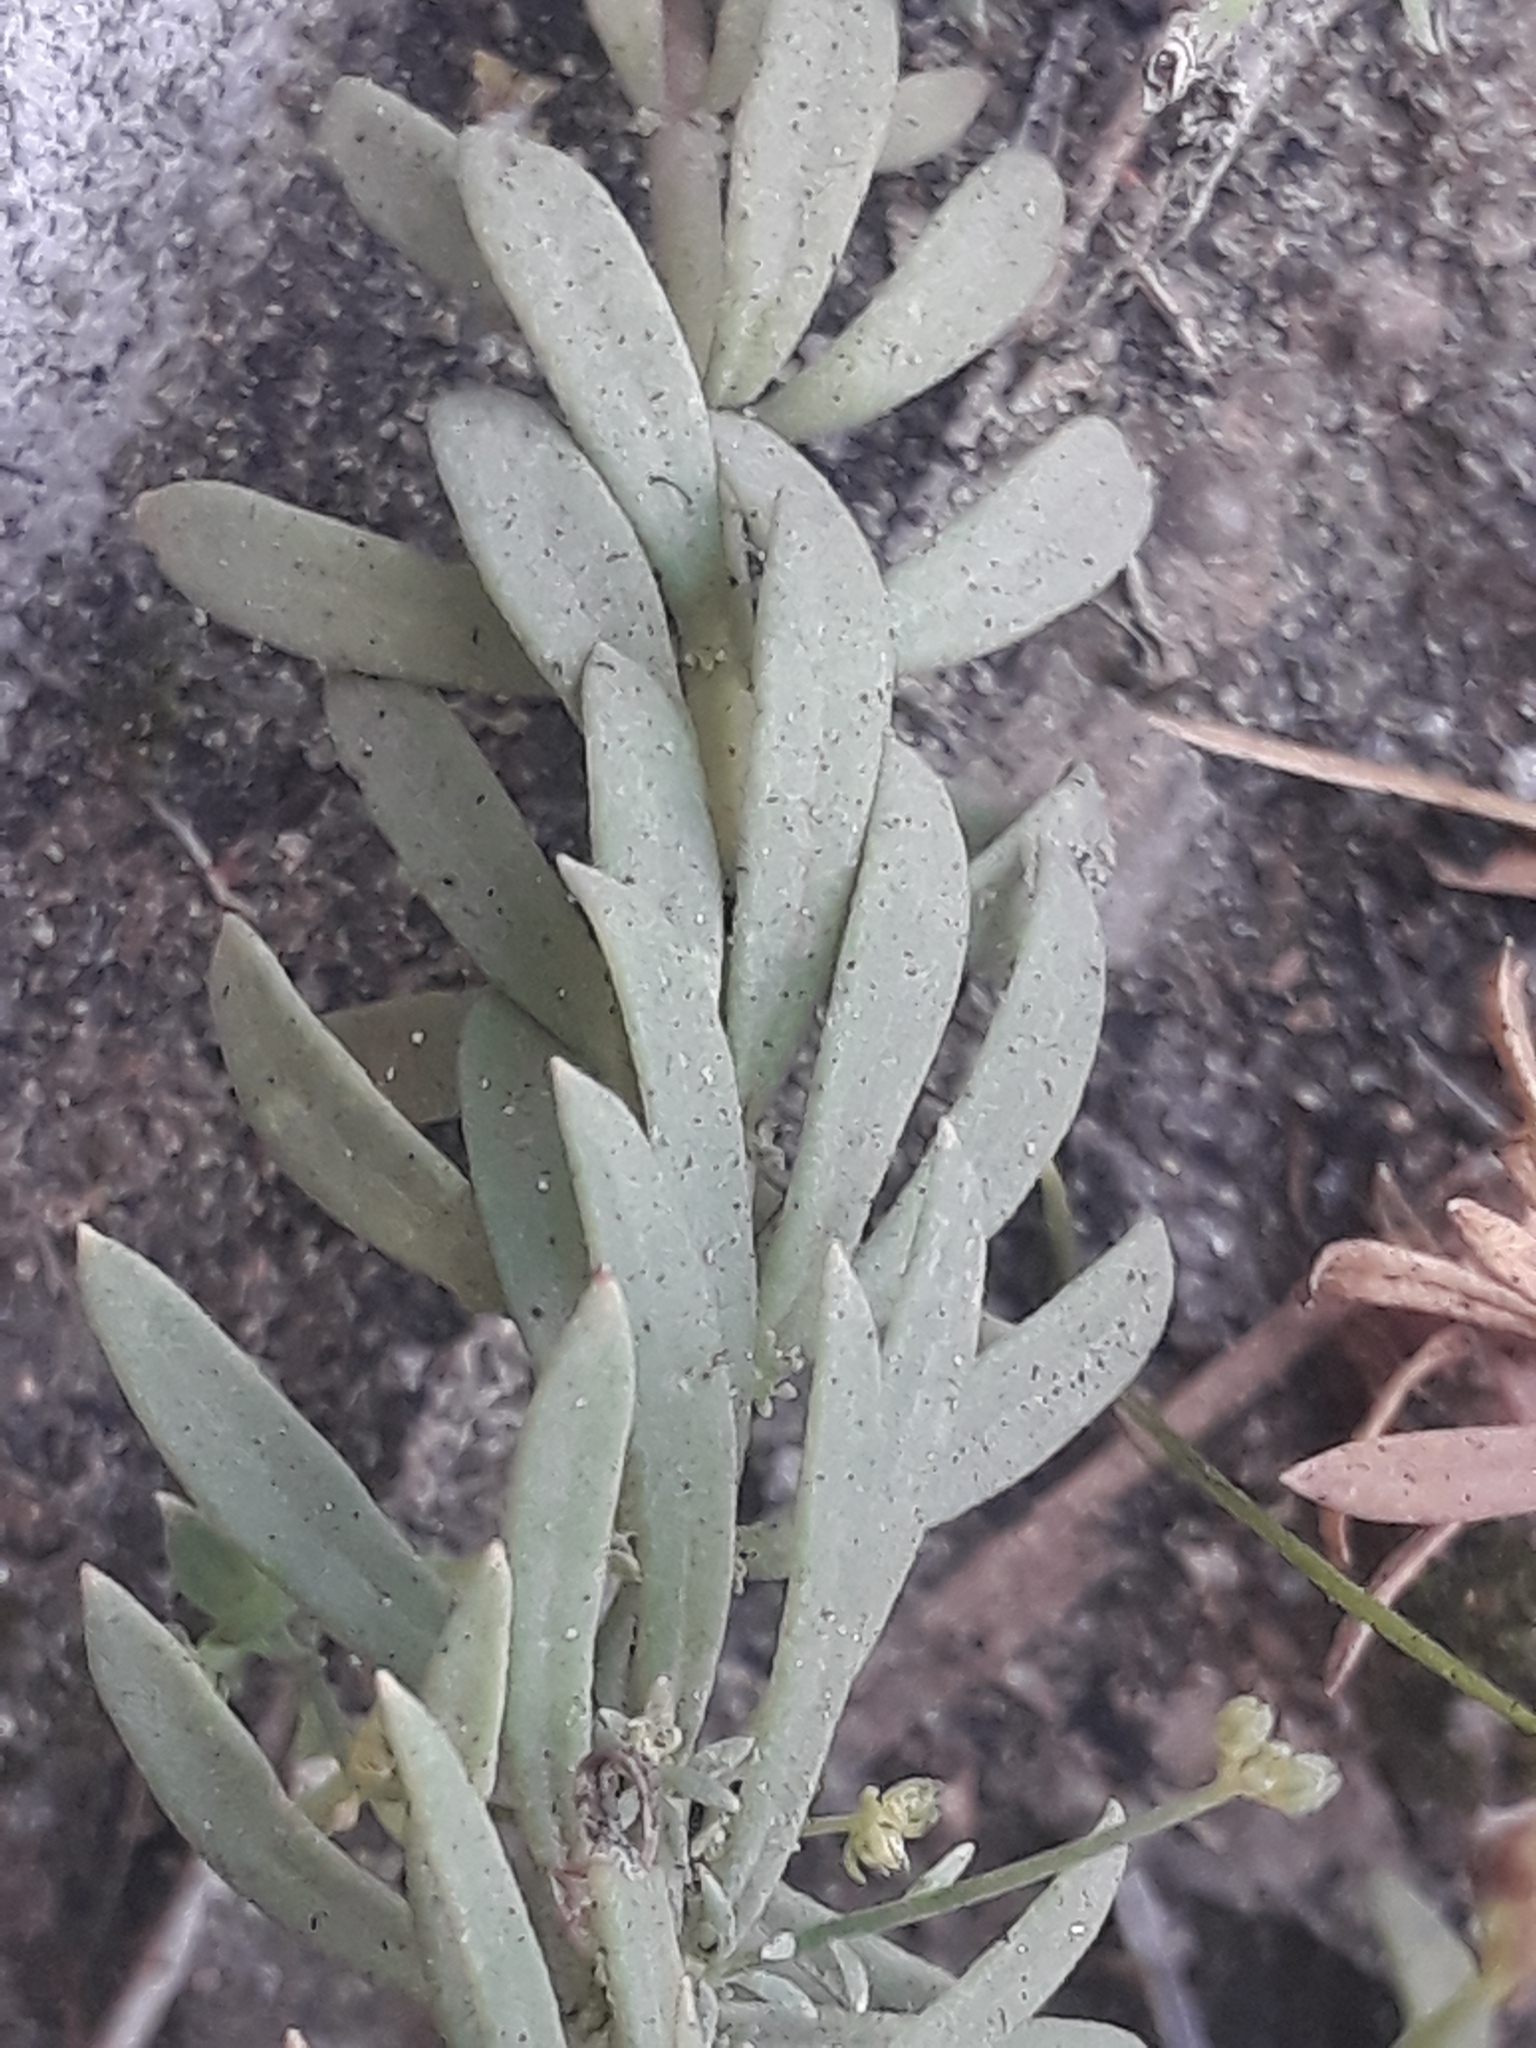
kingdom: Plantae
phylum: Tracheophyta
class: Magnoliopsida
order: Lamiales
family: Plantaginaceae
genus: Linaria
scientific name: Linaria repens
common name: Pale toadflax
